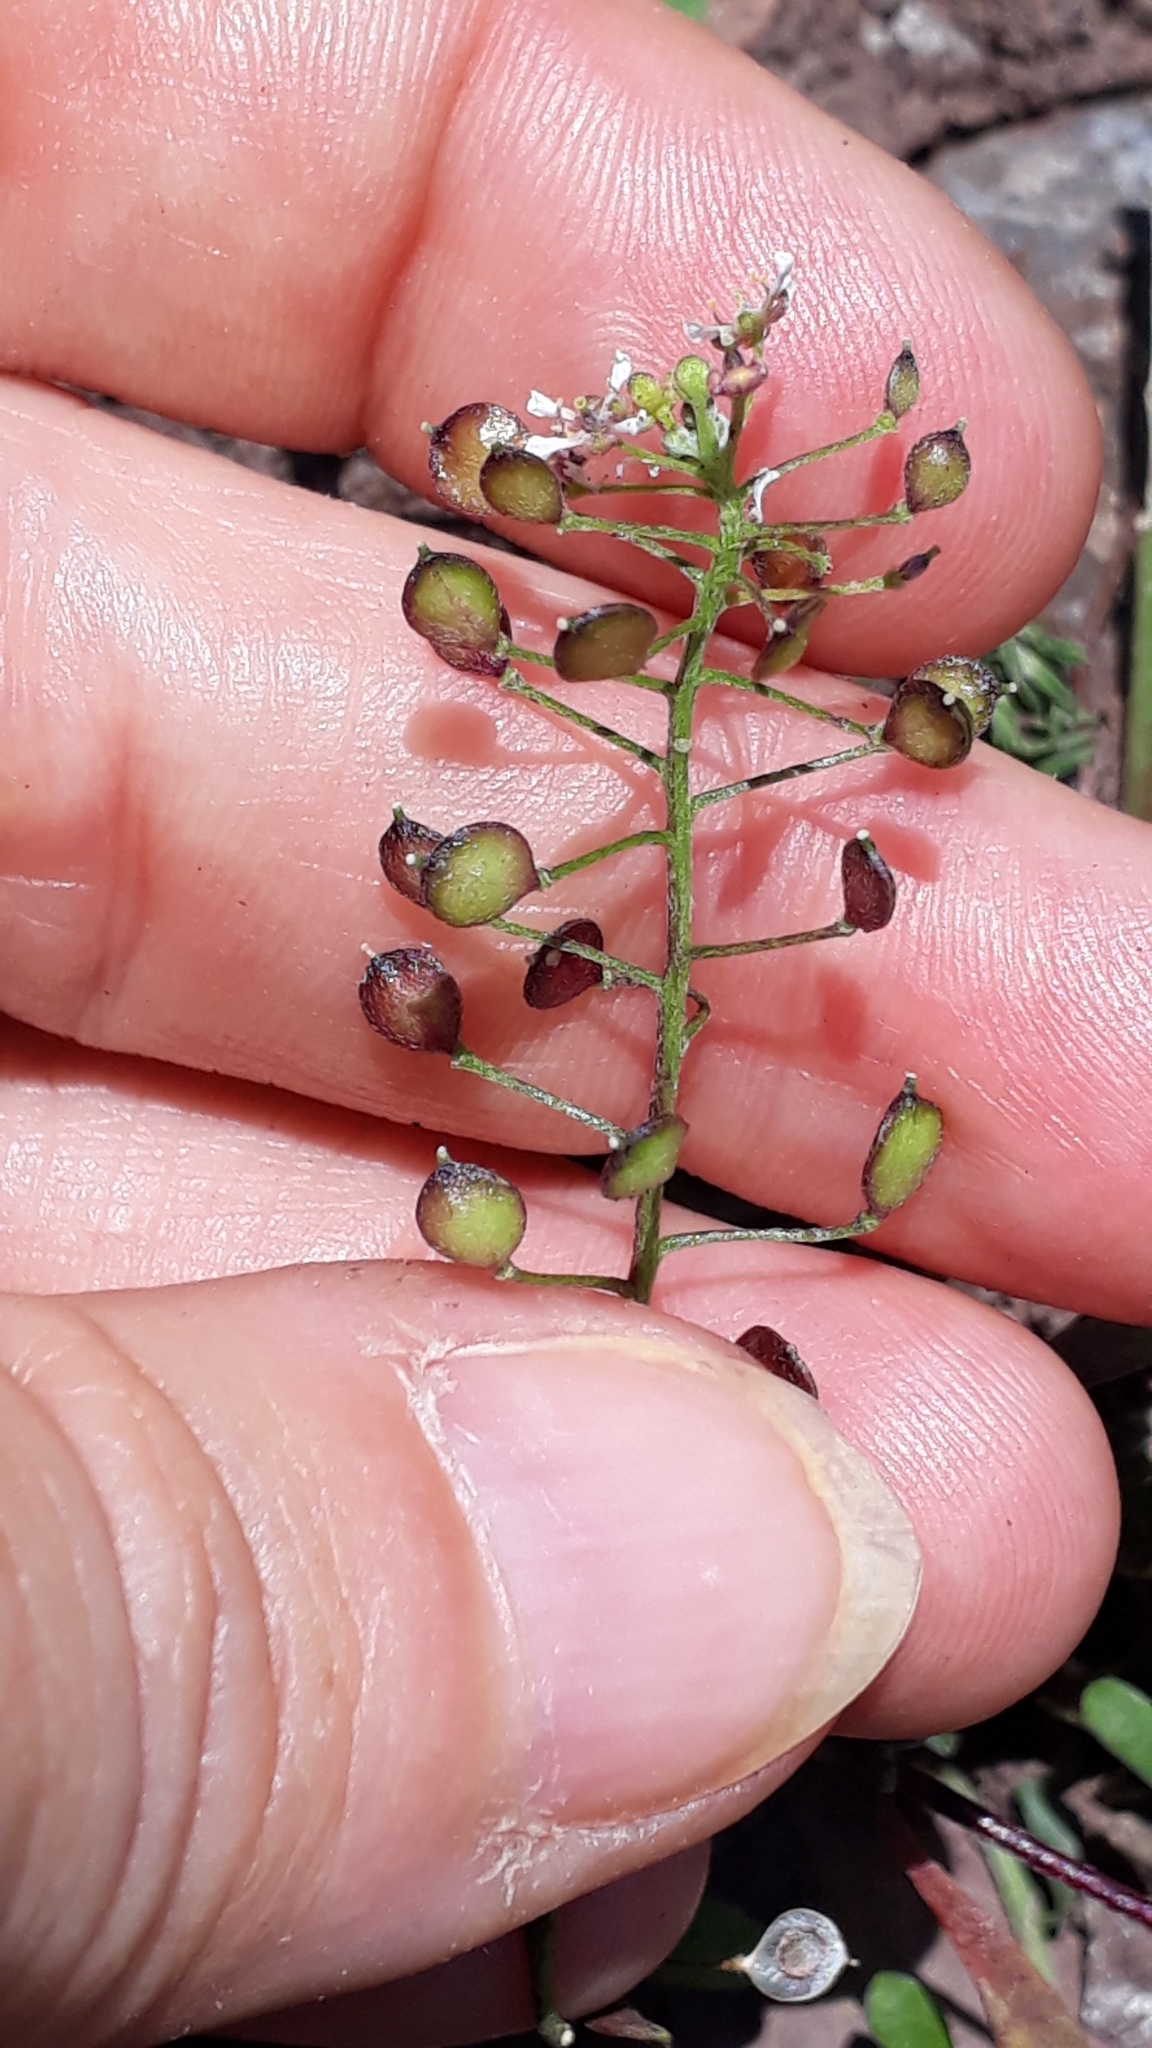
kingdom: Plantae
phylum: Tracheophyta
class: Magnoliopsida
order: Brassicales
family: Brassicaceae
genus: Lobularia
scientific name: Lobularia canariensis
